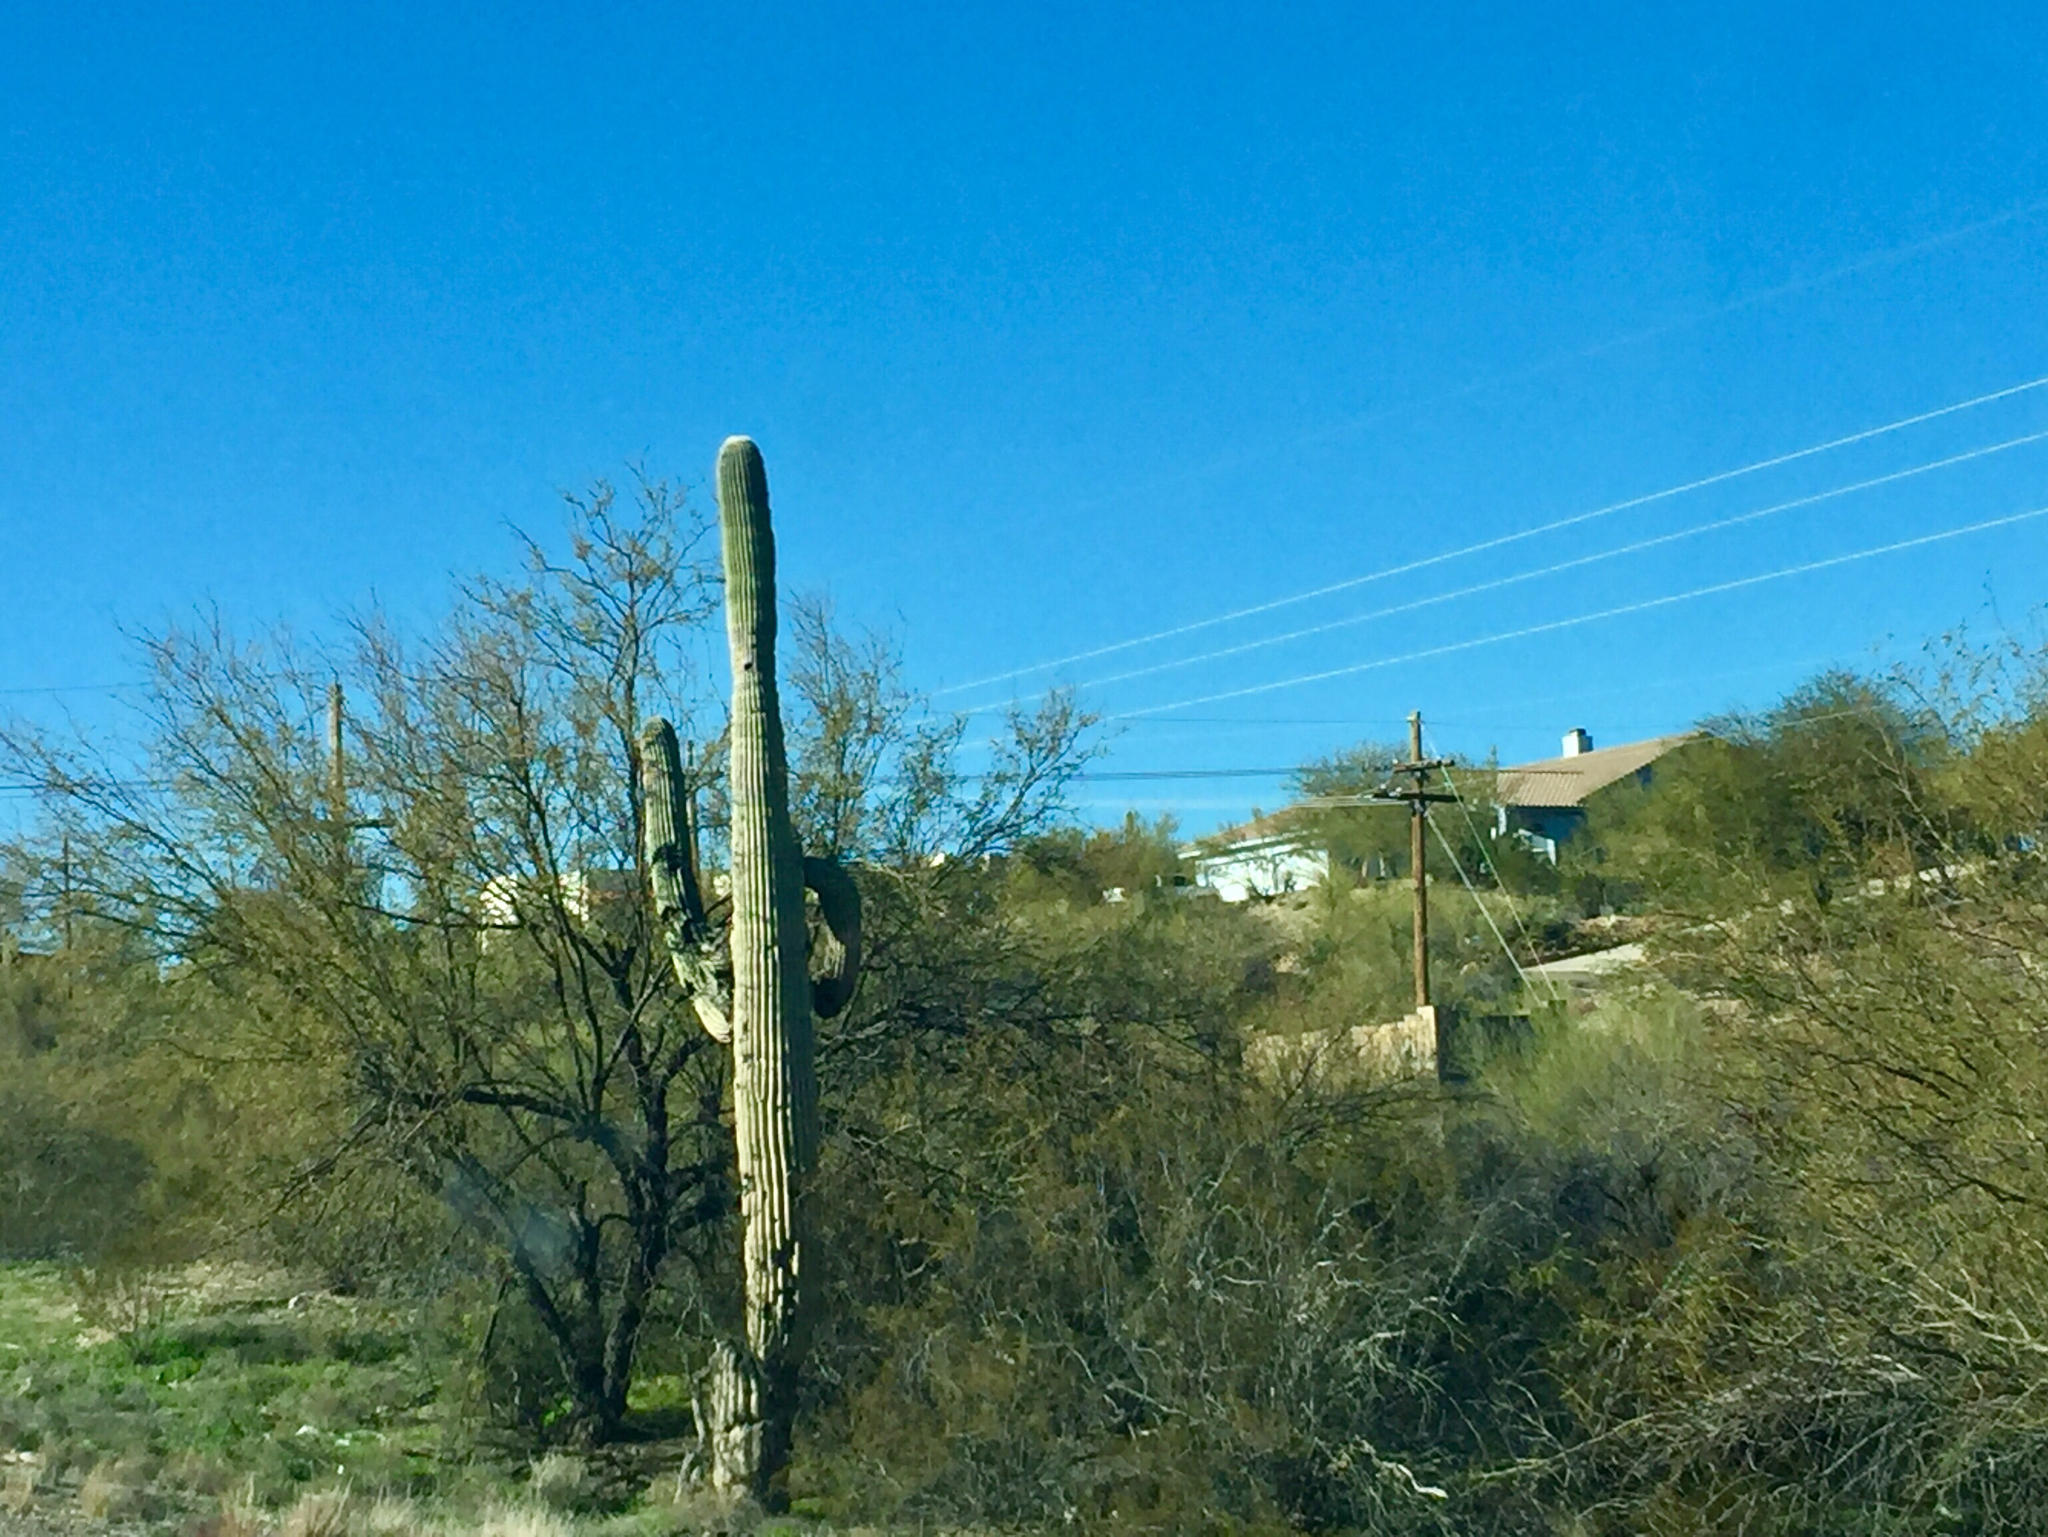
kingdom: Plantae
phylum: Tracheophyta
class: Magnoliopsida
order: Caryophyllales
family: Cactaceae
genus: Carnegiea
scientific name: Carnegiea gigantea
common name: Saguaro
